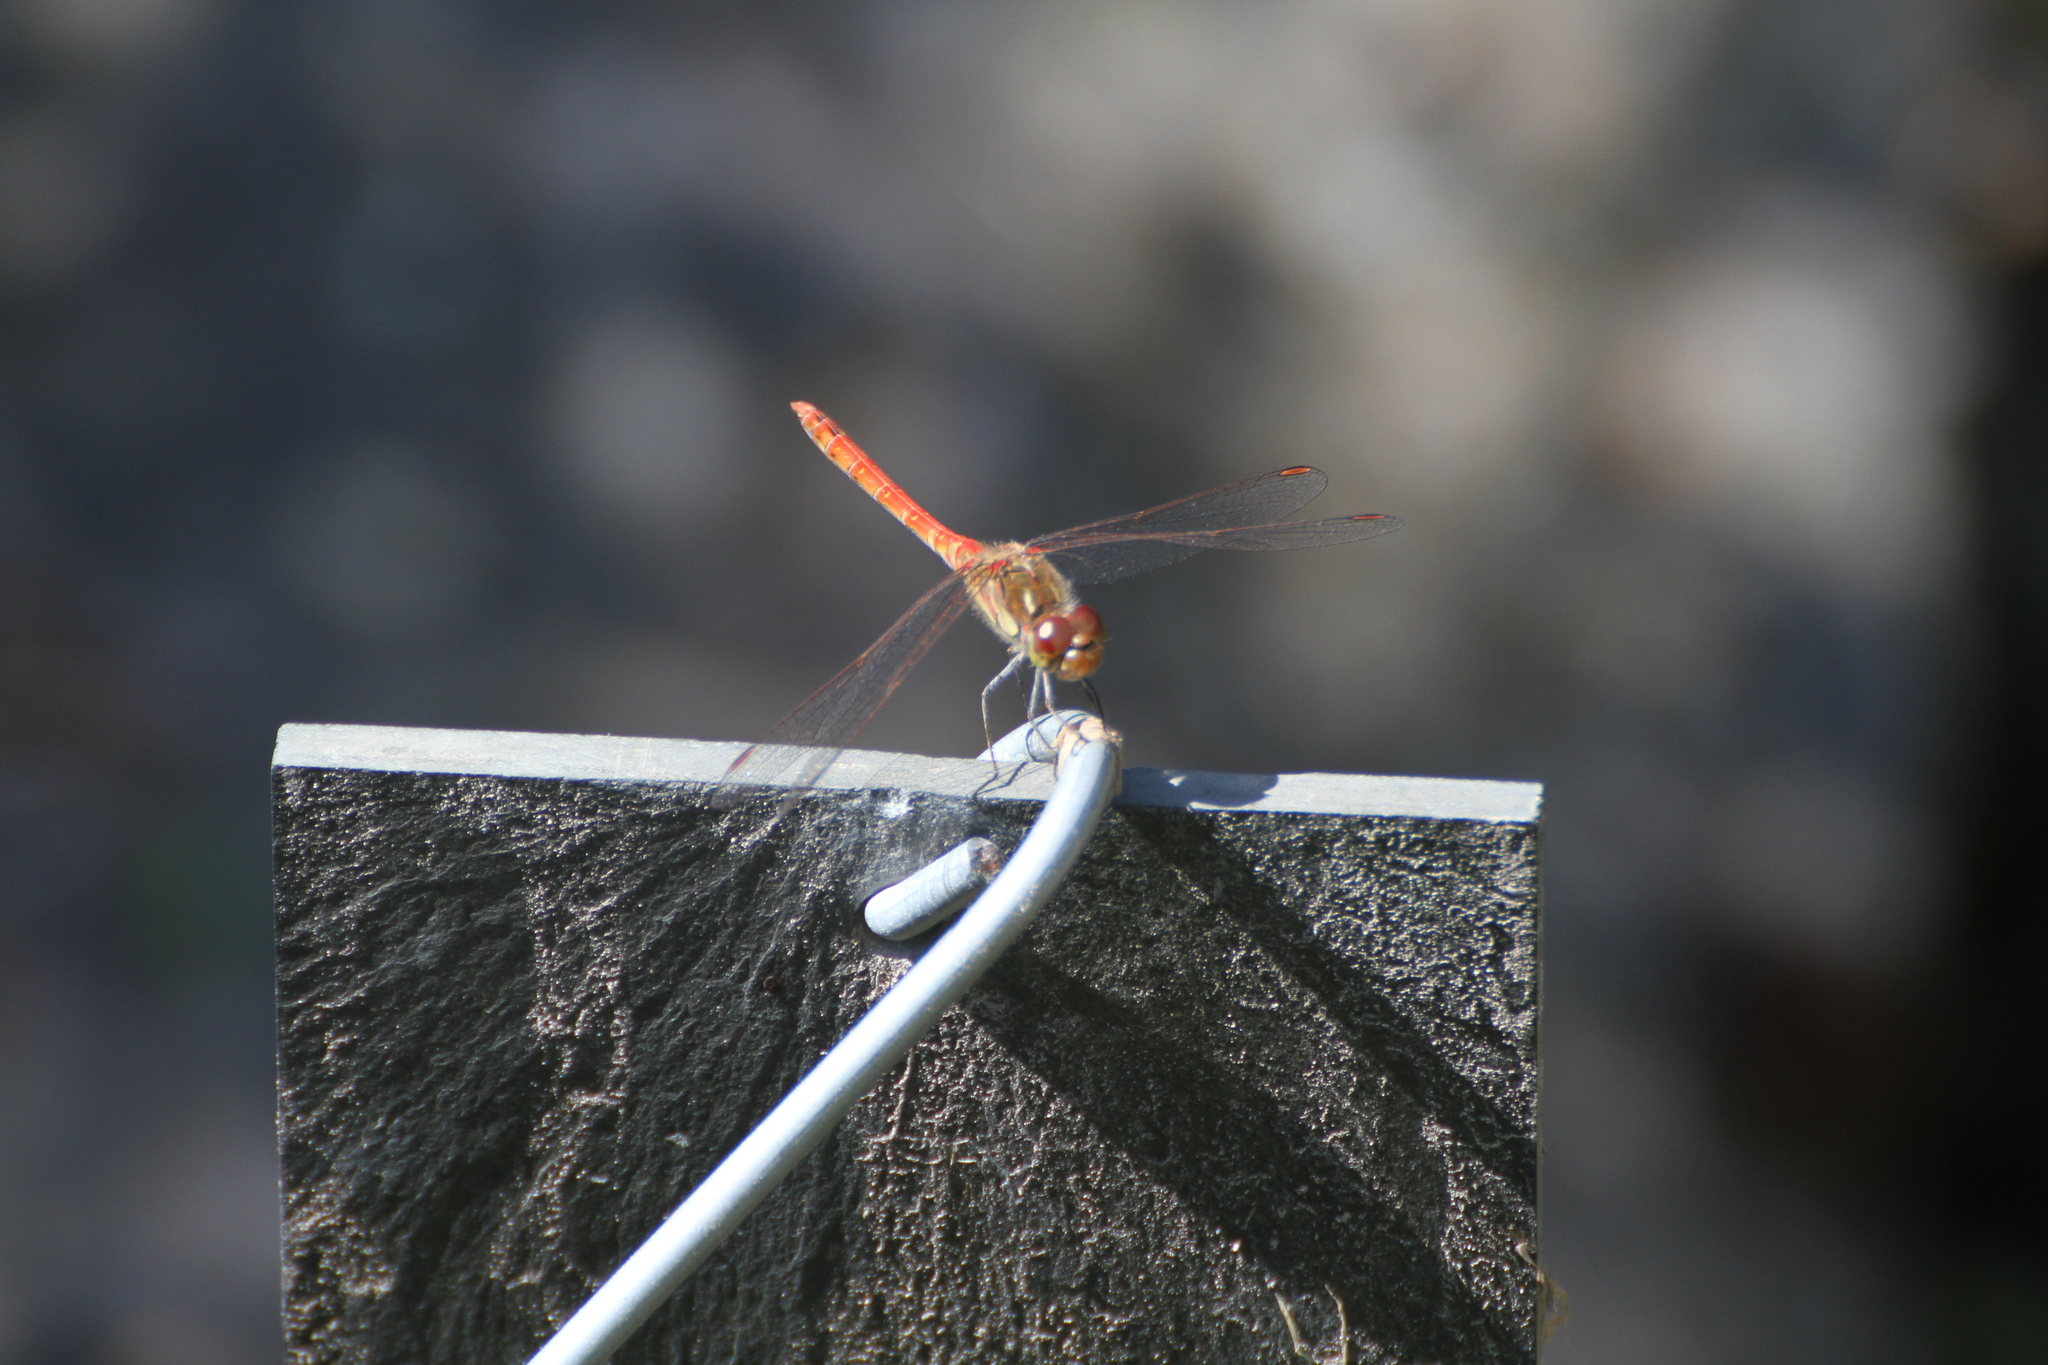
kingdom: Animalia
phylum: Arthropoda
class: Insecta
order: Odonata
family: Libellulidae
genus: Sympetrum
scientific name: Sympetrum striolatum
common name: Common darter
